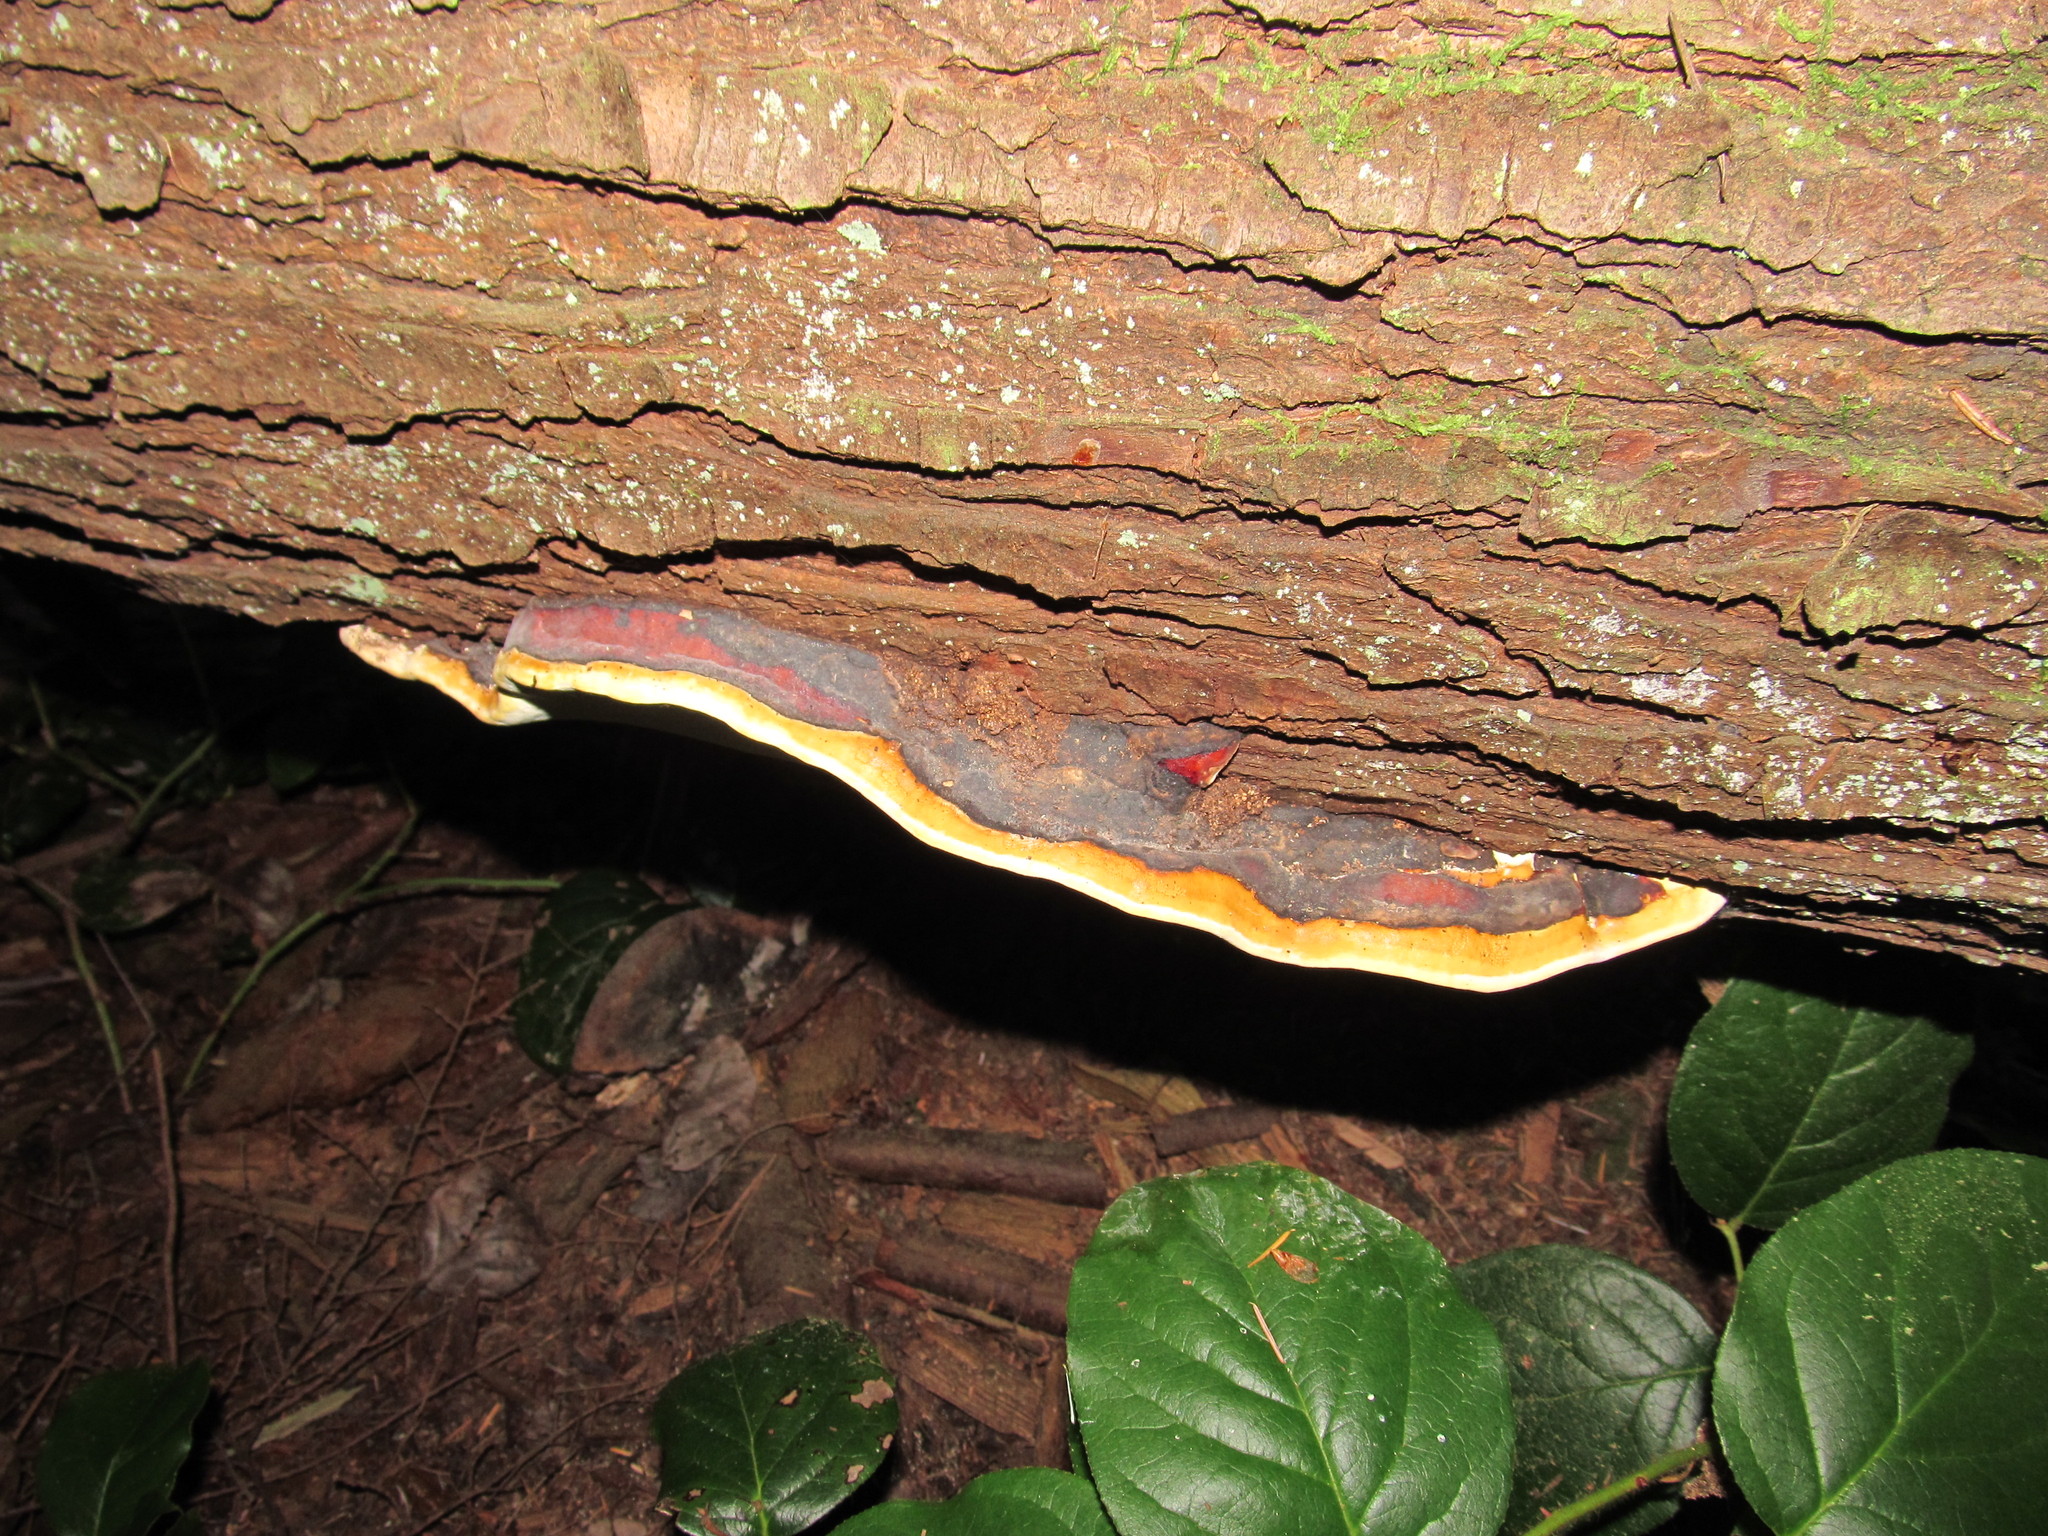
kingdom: Fungi
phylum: Basidiomycota
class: Agaricomycetes
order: Polyporales
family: Fomitopsidaceae
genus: Fomitopsis
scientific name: Fomitopsis mounceae
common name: Northern red belt
